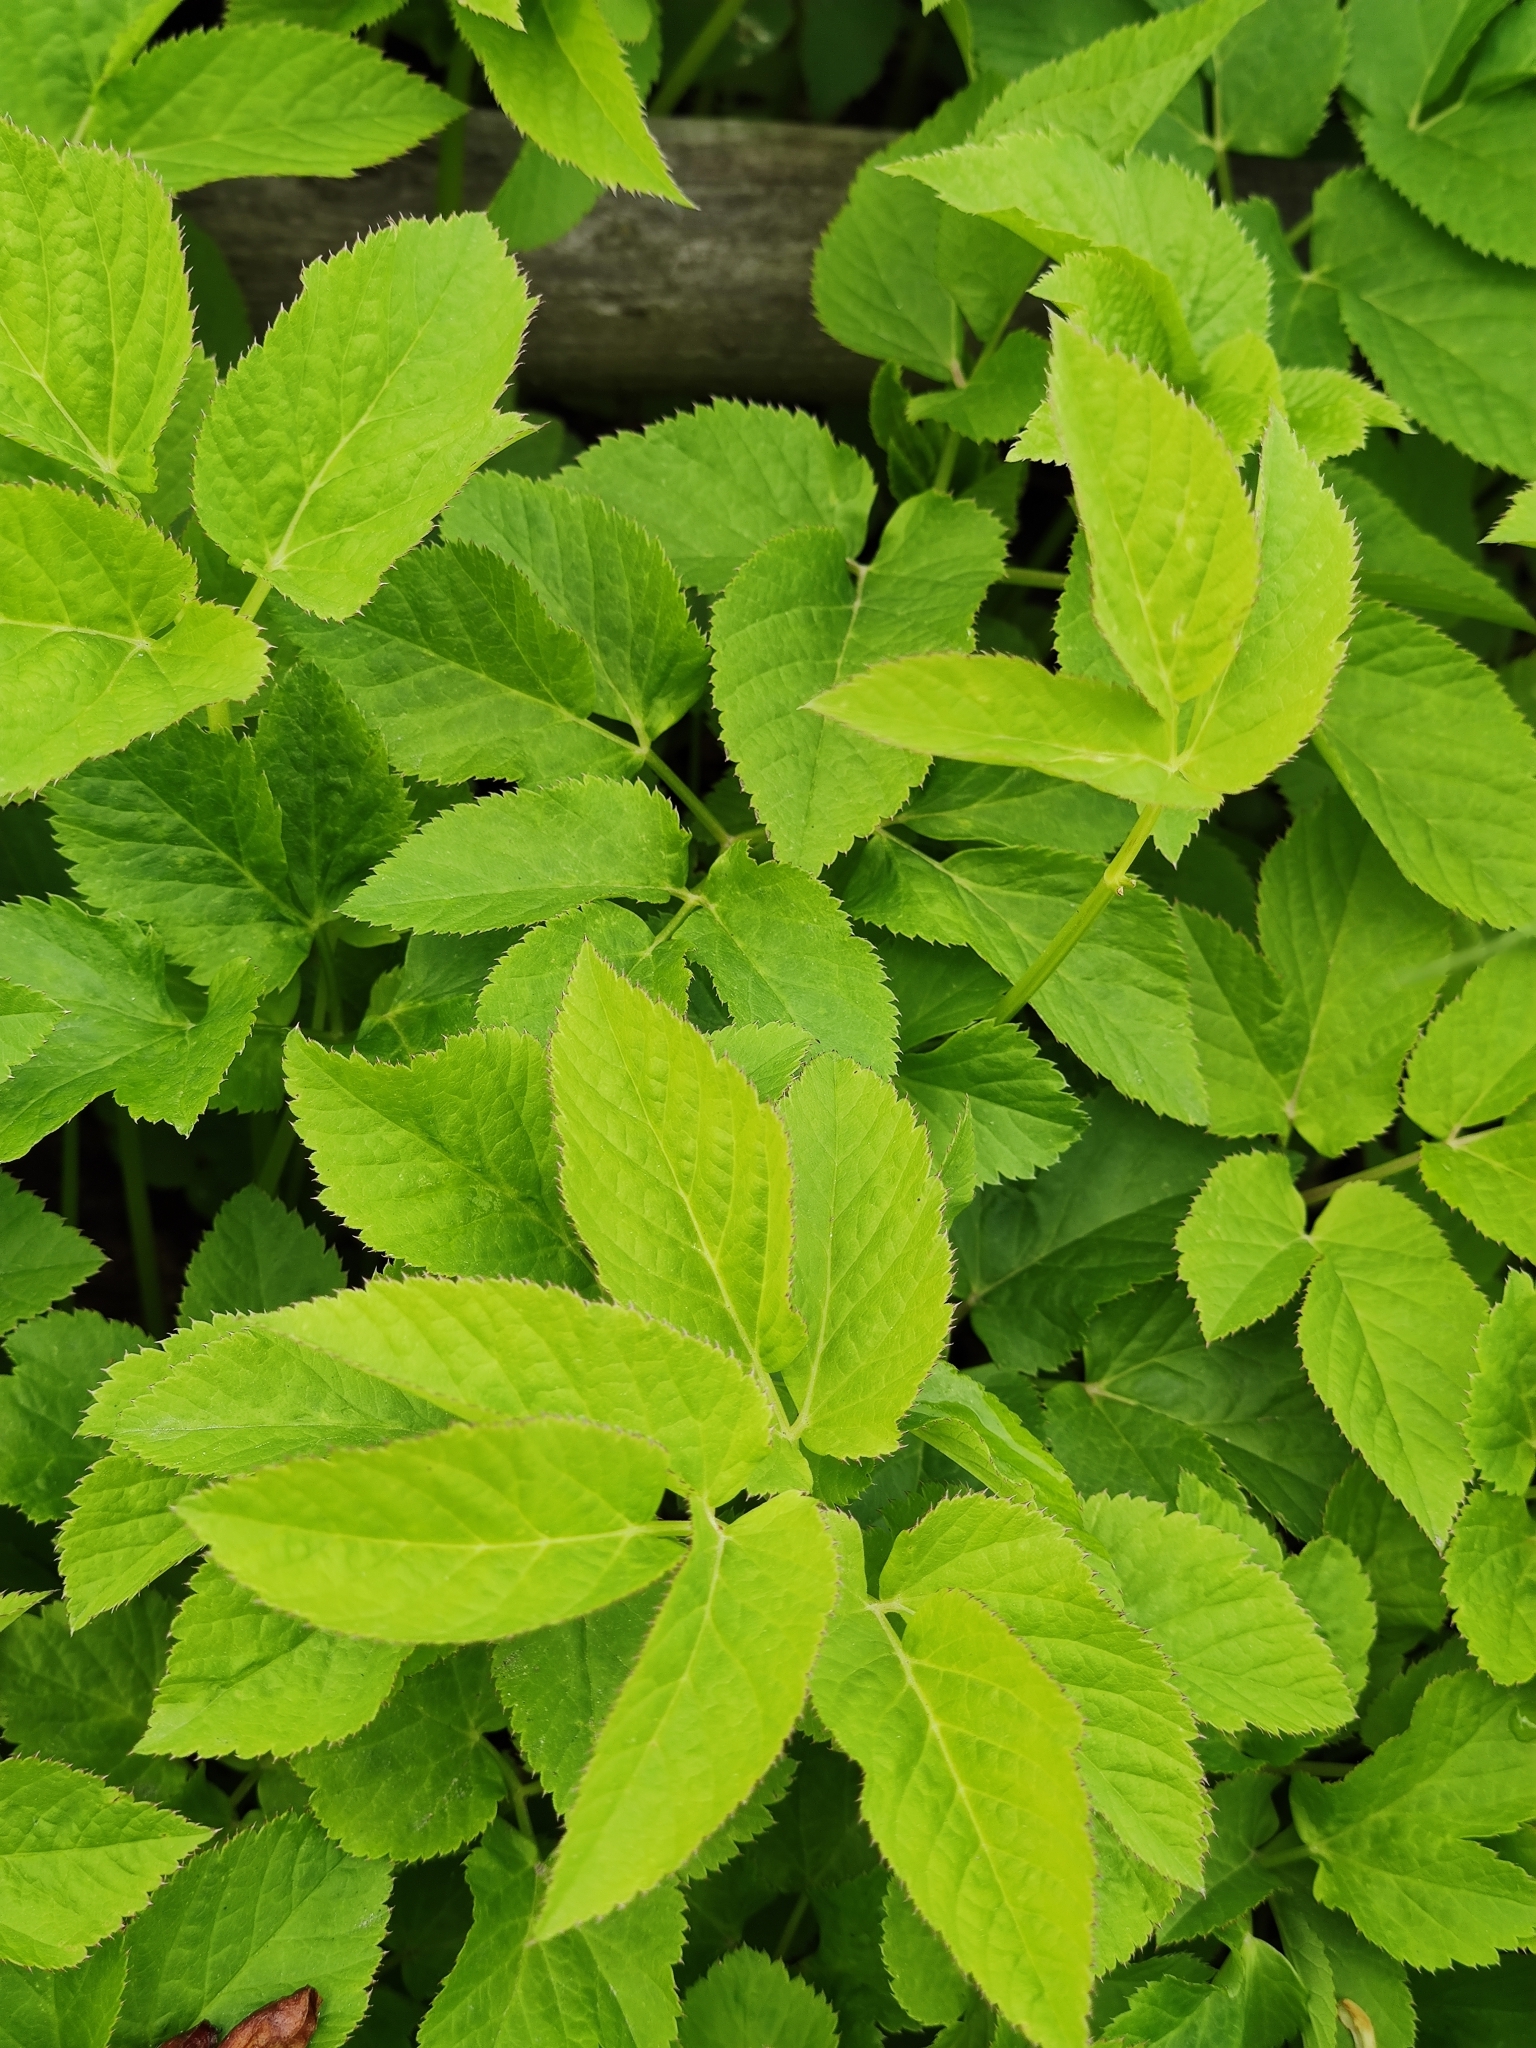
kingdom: Plantae
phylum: Tracheophyta
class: Magnoliopsida
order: Apiales
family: Apiaceae
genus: Aegopodium
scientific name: Aegopodium podagraria
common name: Ground-elder
